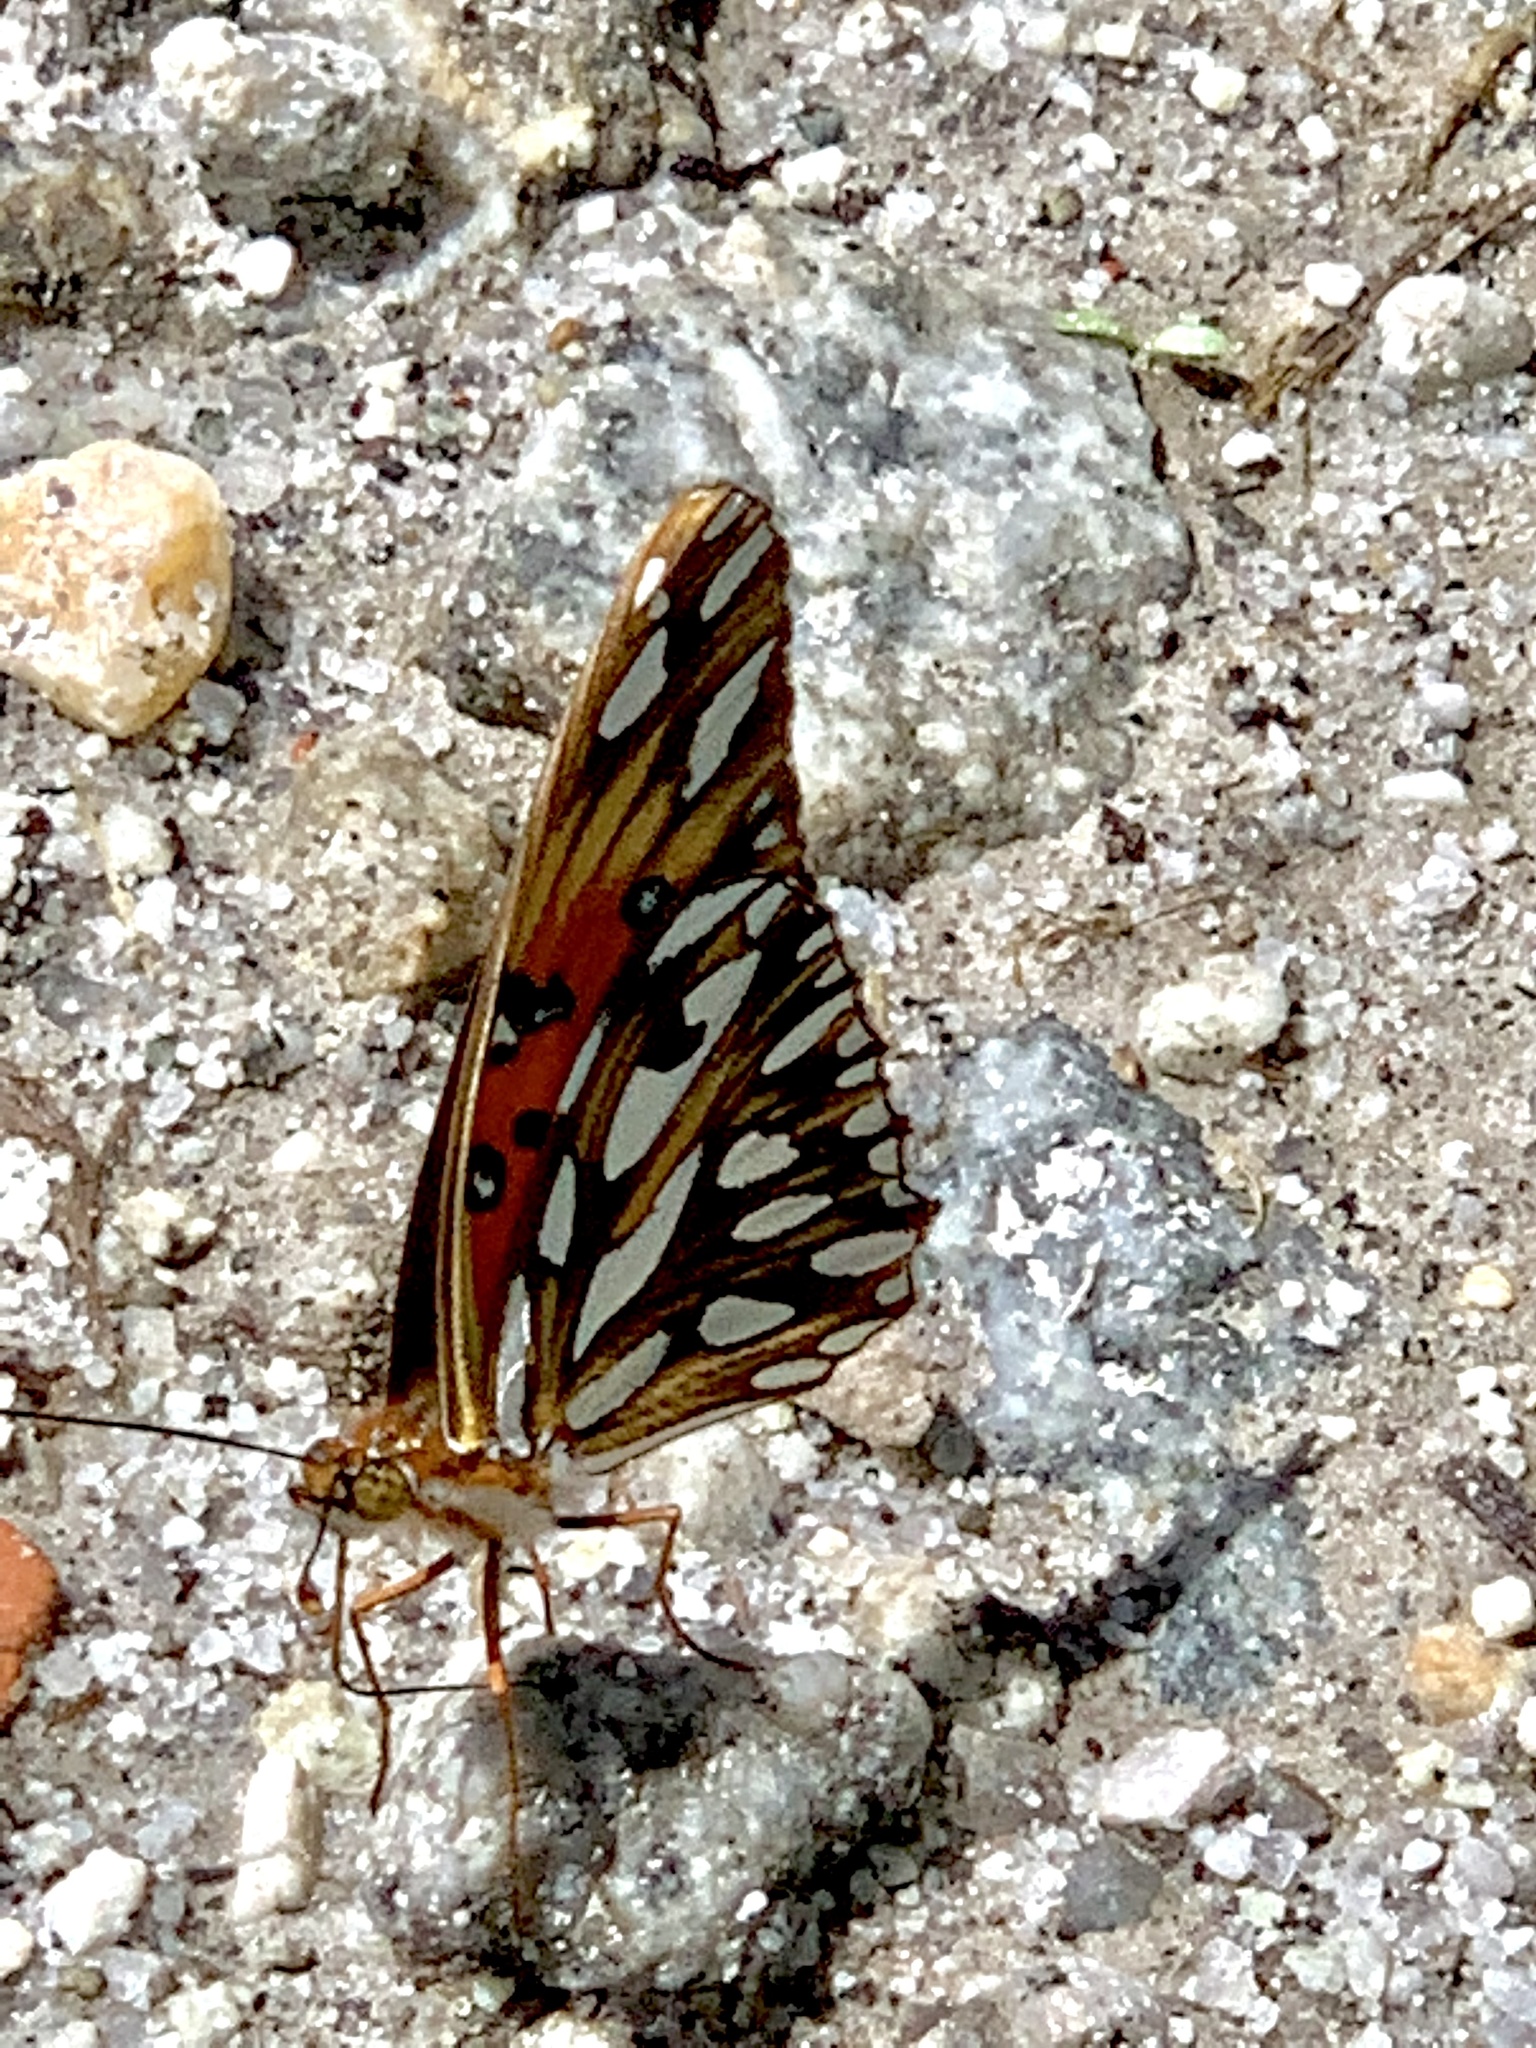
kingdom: Animalia
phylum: Arthropoda
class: Insecta
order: Lepidoptera
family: Nymphalidae
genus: Dione
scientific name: Dione vanillae
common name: Gulf fritillary
